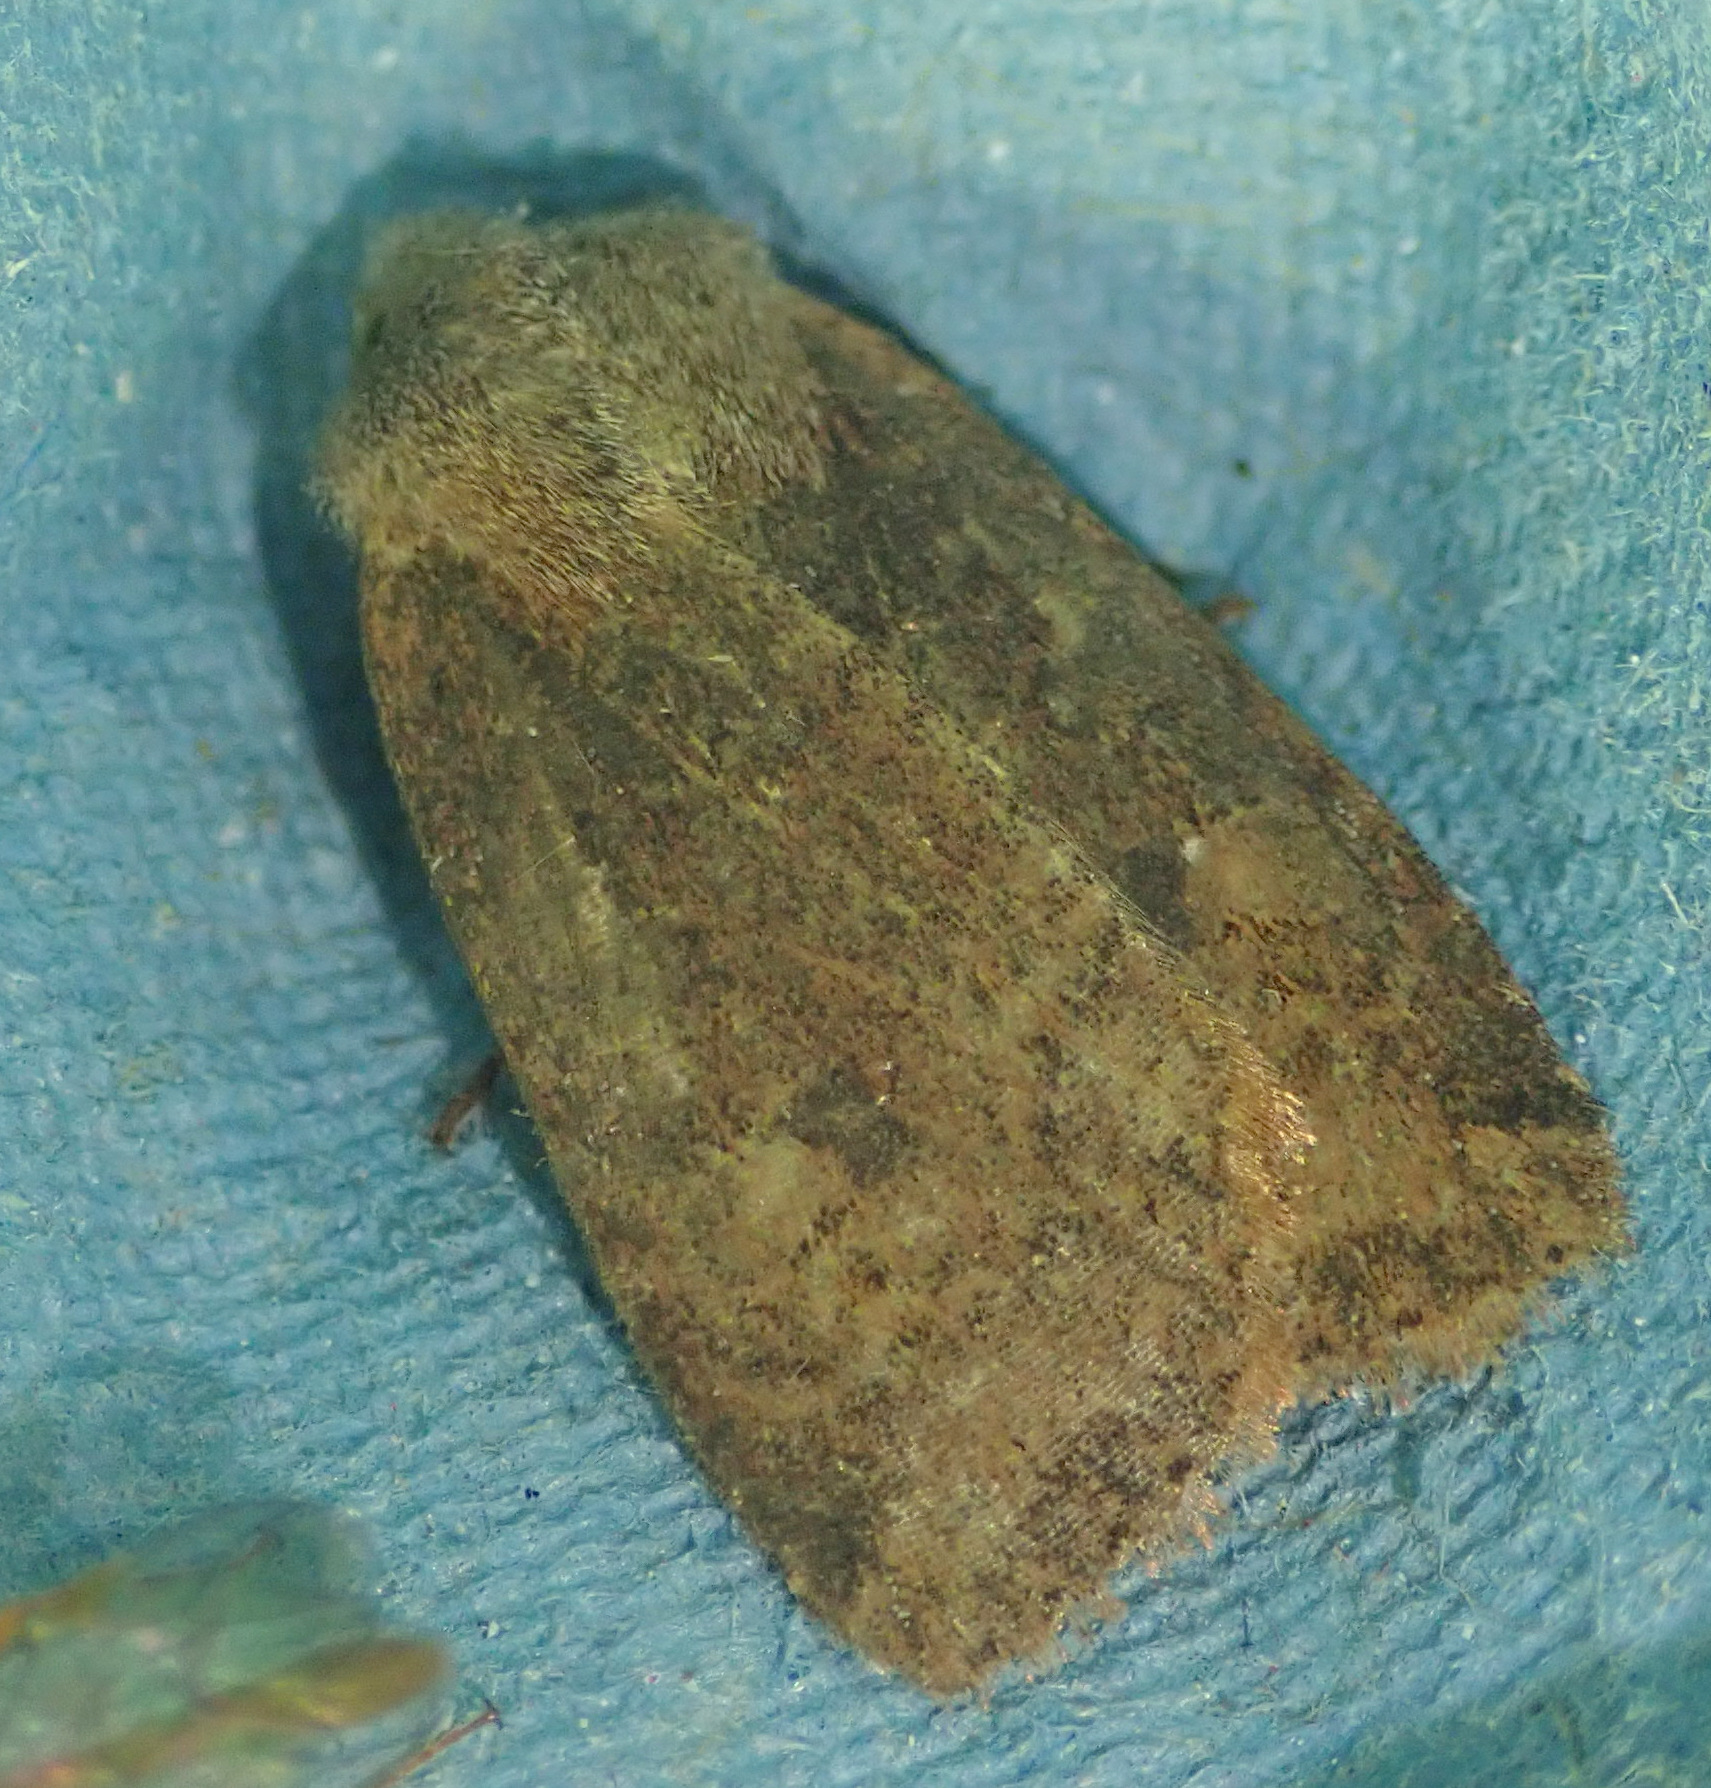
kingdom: Animalia
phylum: Arthropoda
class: Insecta
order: Lepidoptera
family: Noctuidae
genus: Conistra
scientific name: Conistra vaccinii
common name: Chestnut
